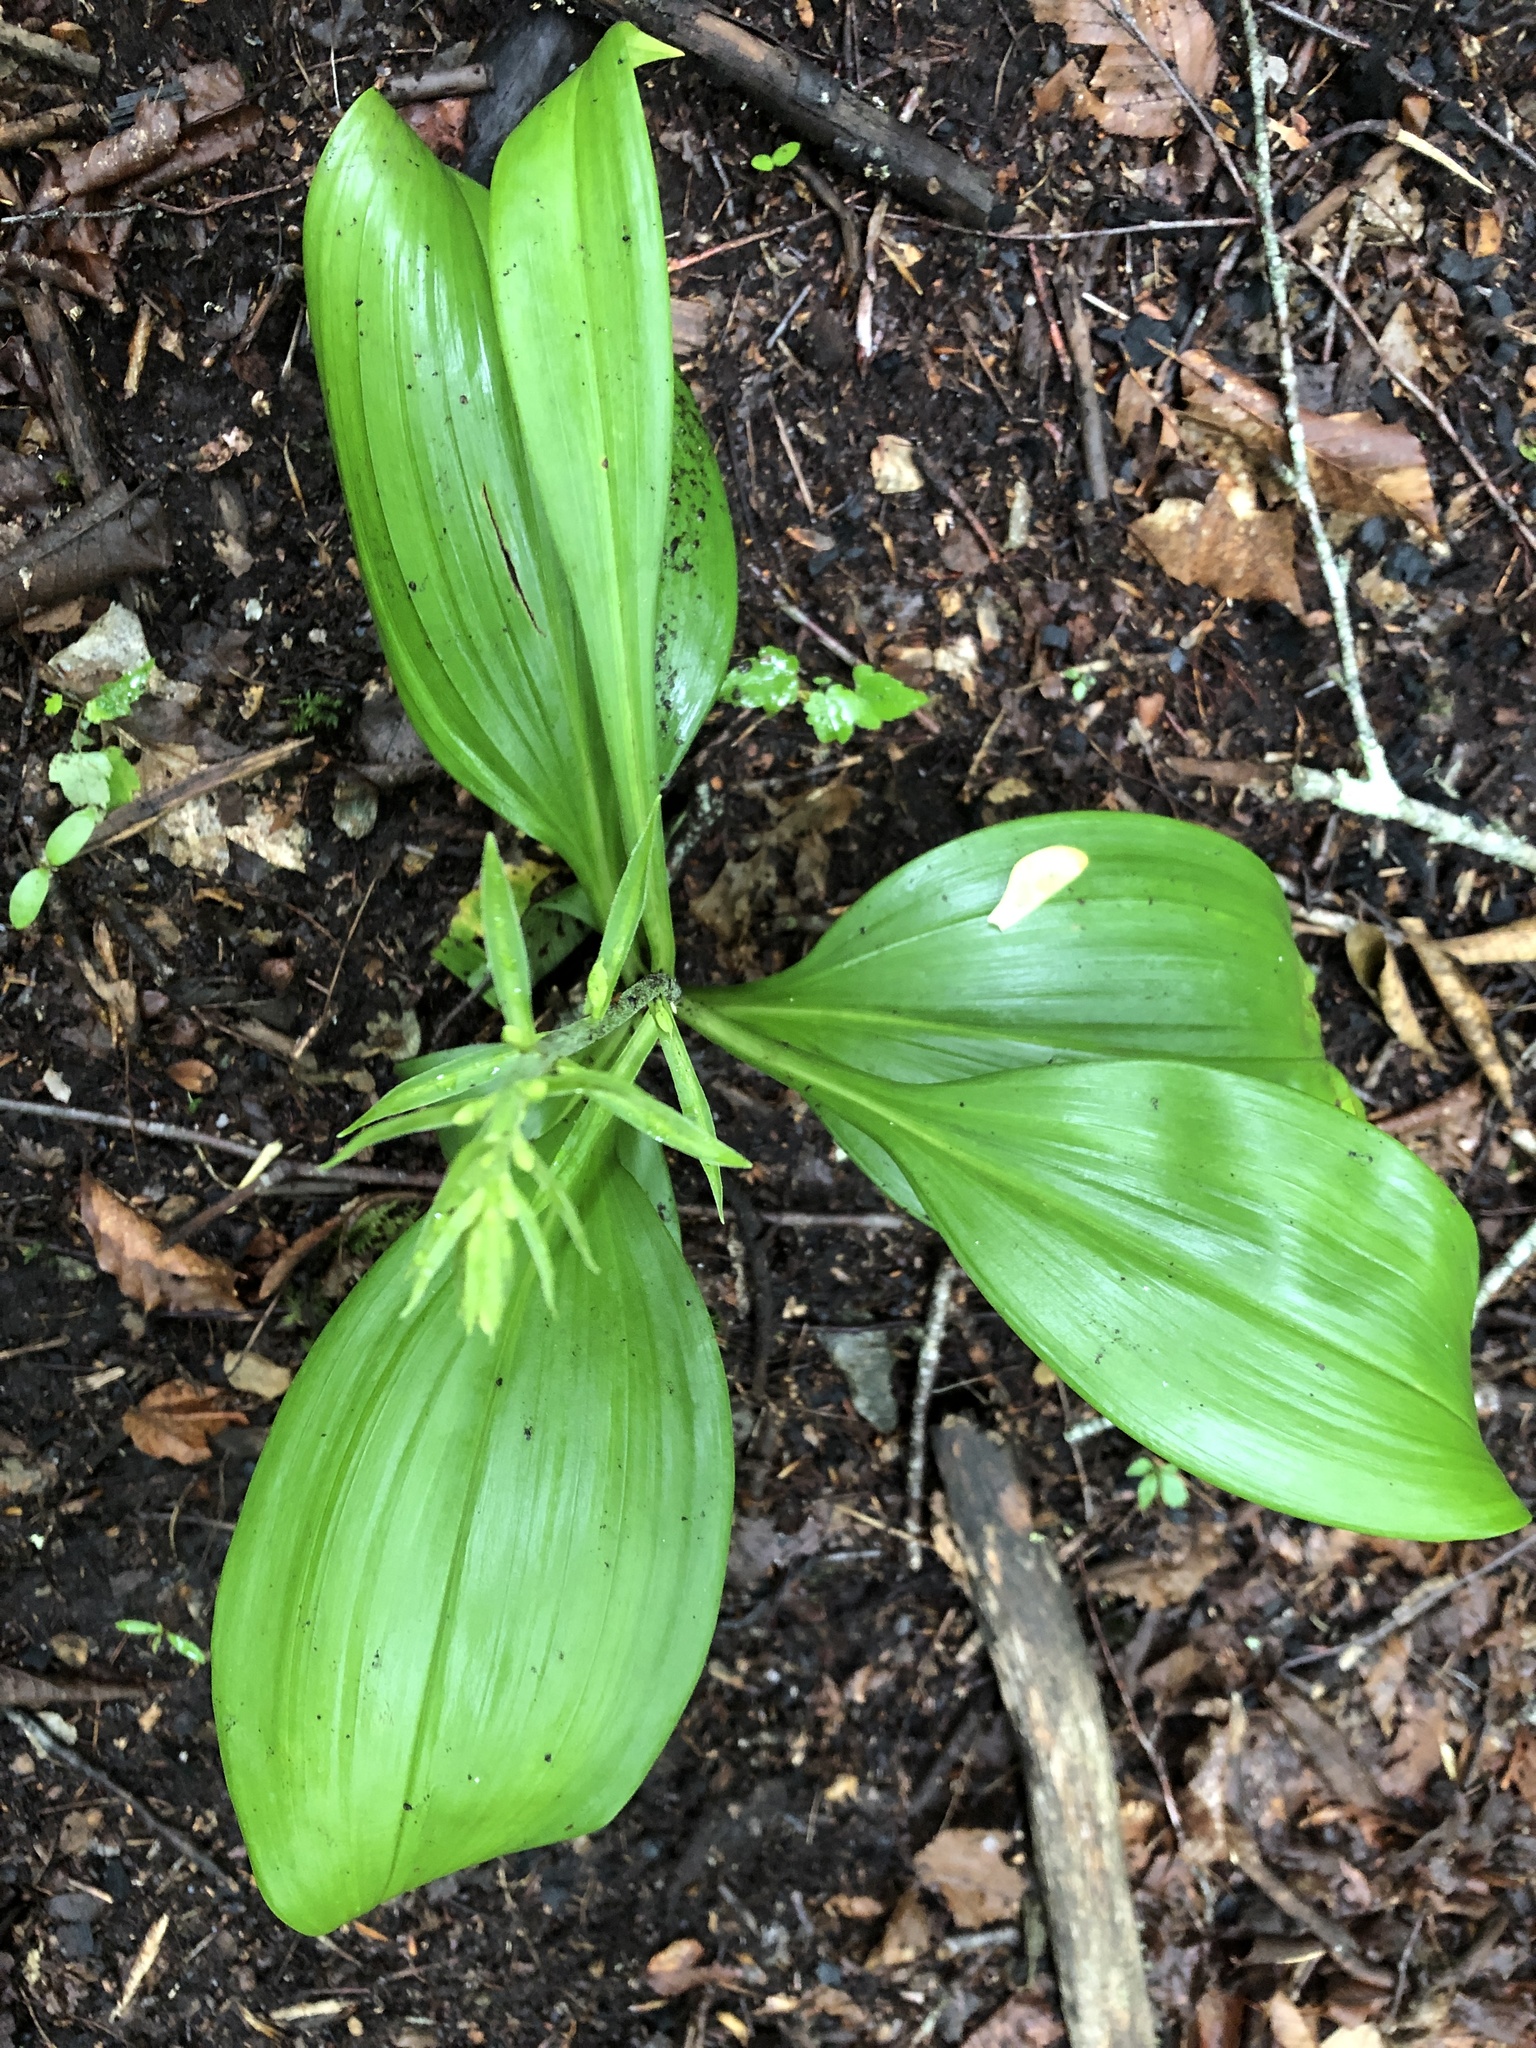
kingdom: Plantae
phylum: Tracheophyta
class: Liliopsida
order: Liliales
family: Melanthiaceae
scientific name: Melanthiaceae
